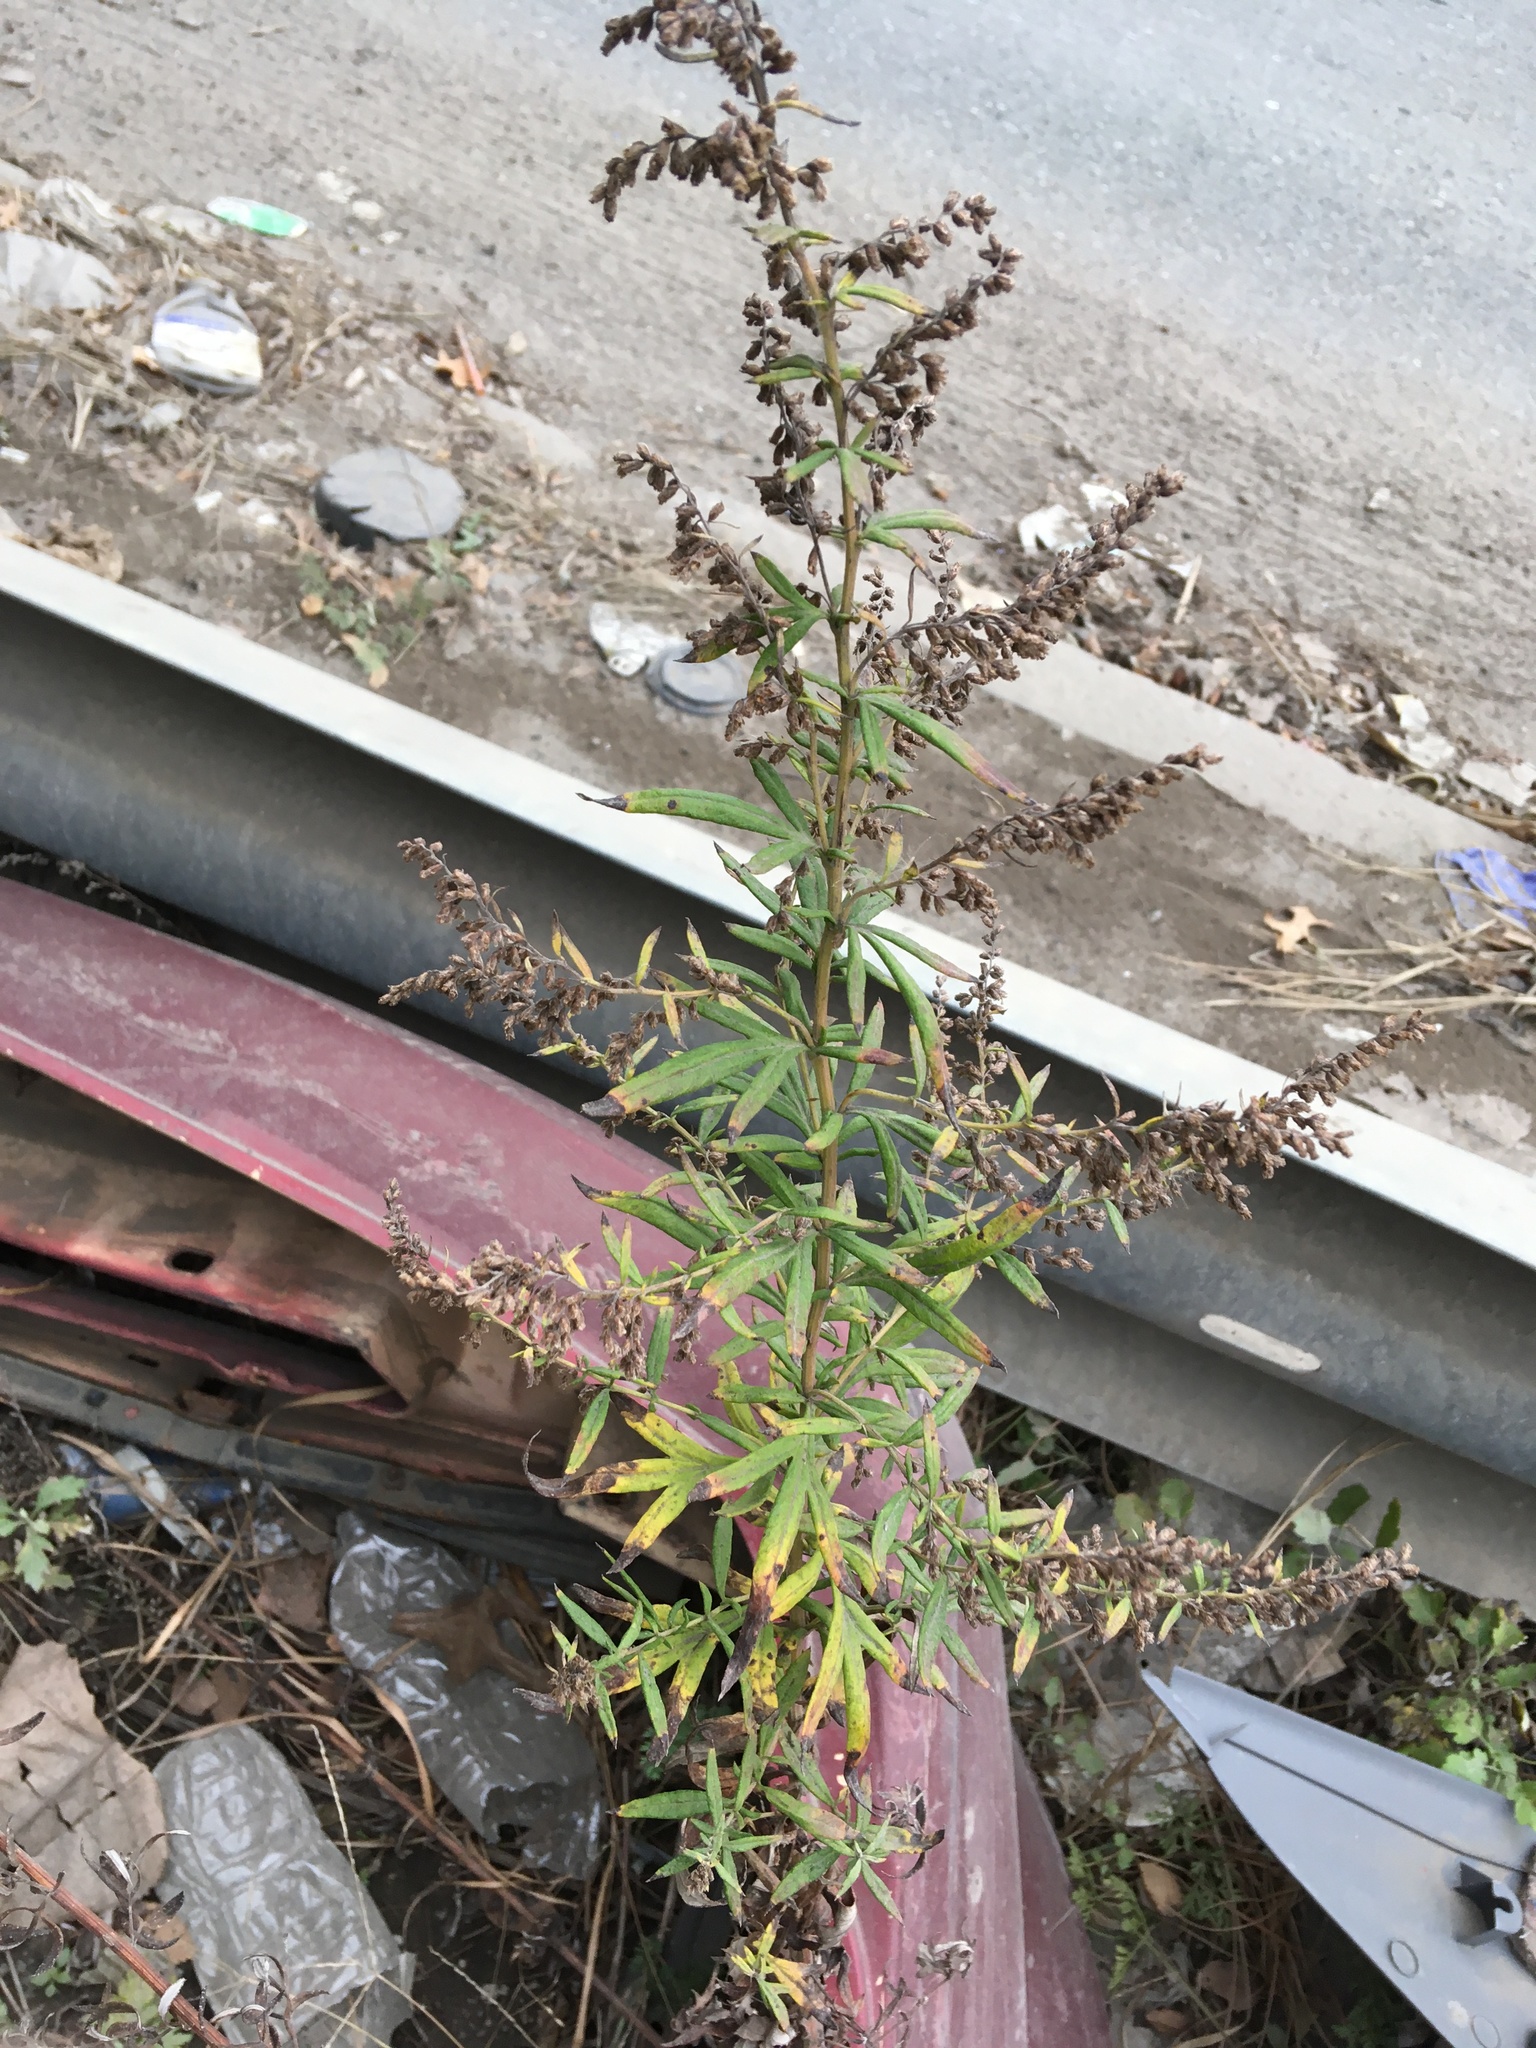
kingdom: Plantae
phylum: Tracheophyta
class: Magnoliopsida
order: Asterales
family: Asteraceae
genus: Artemisia
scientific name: Artemisia vulgaris
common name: Mugwort
